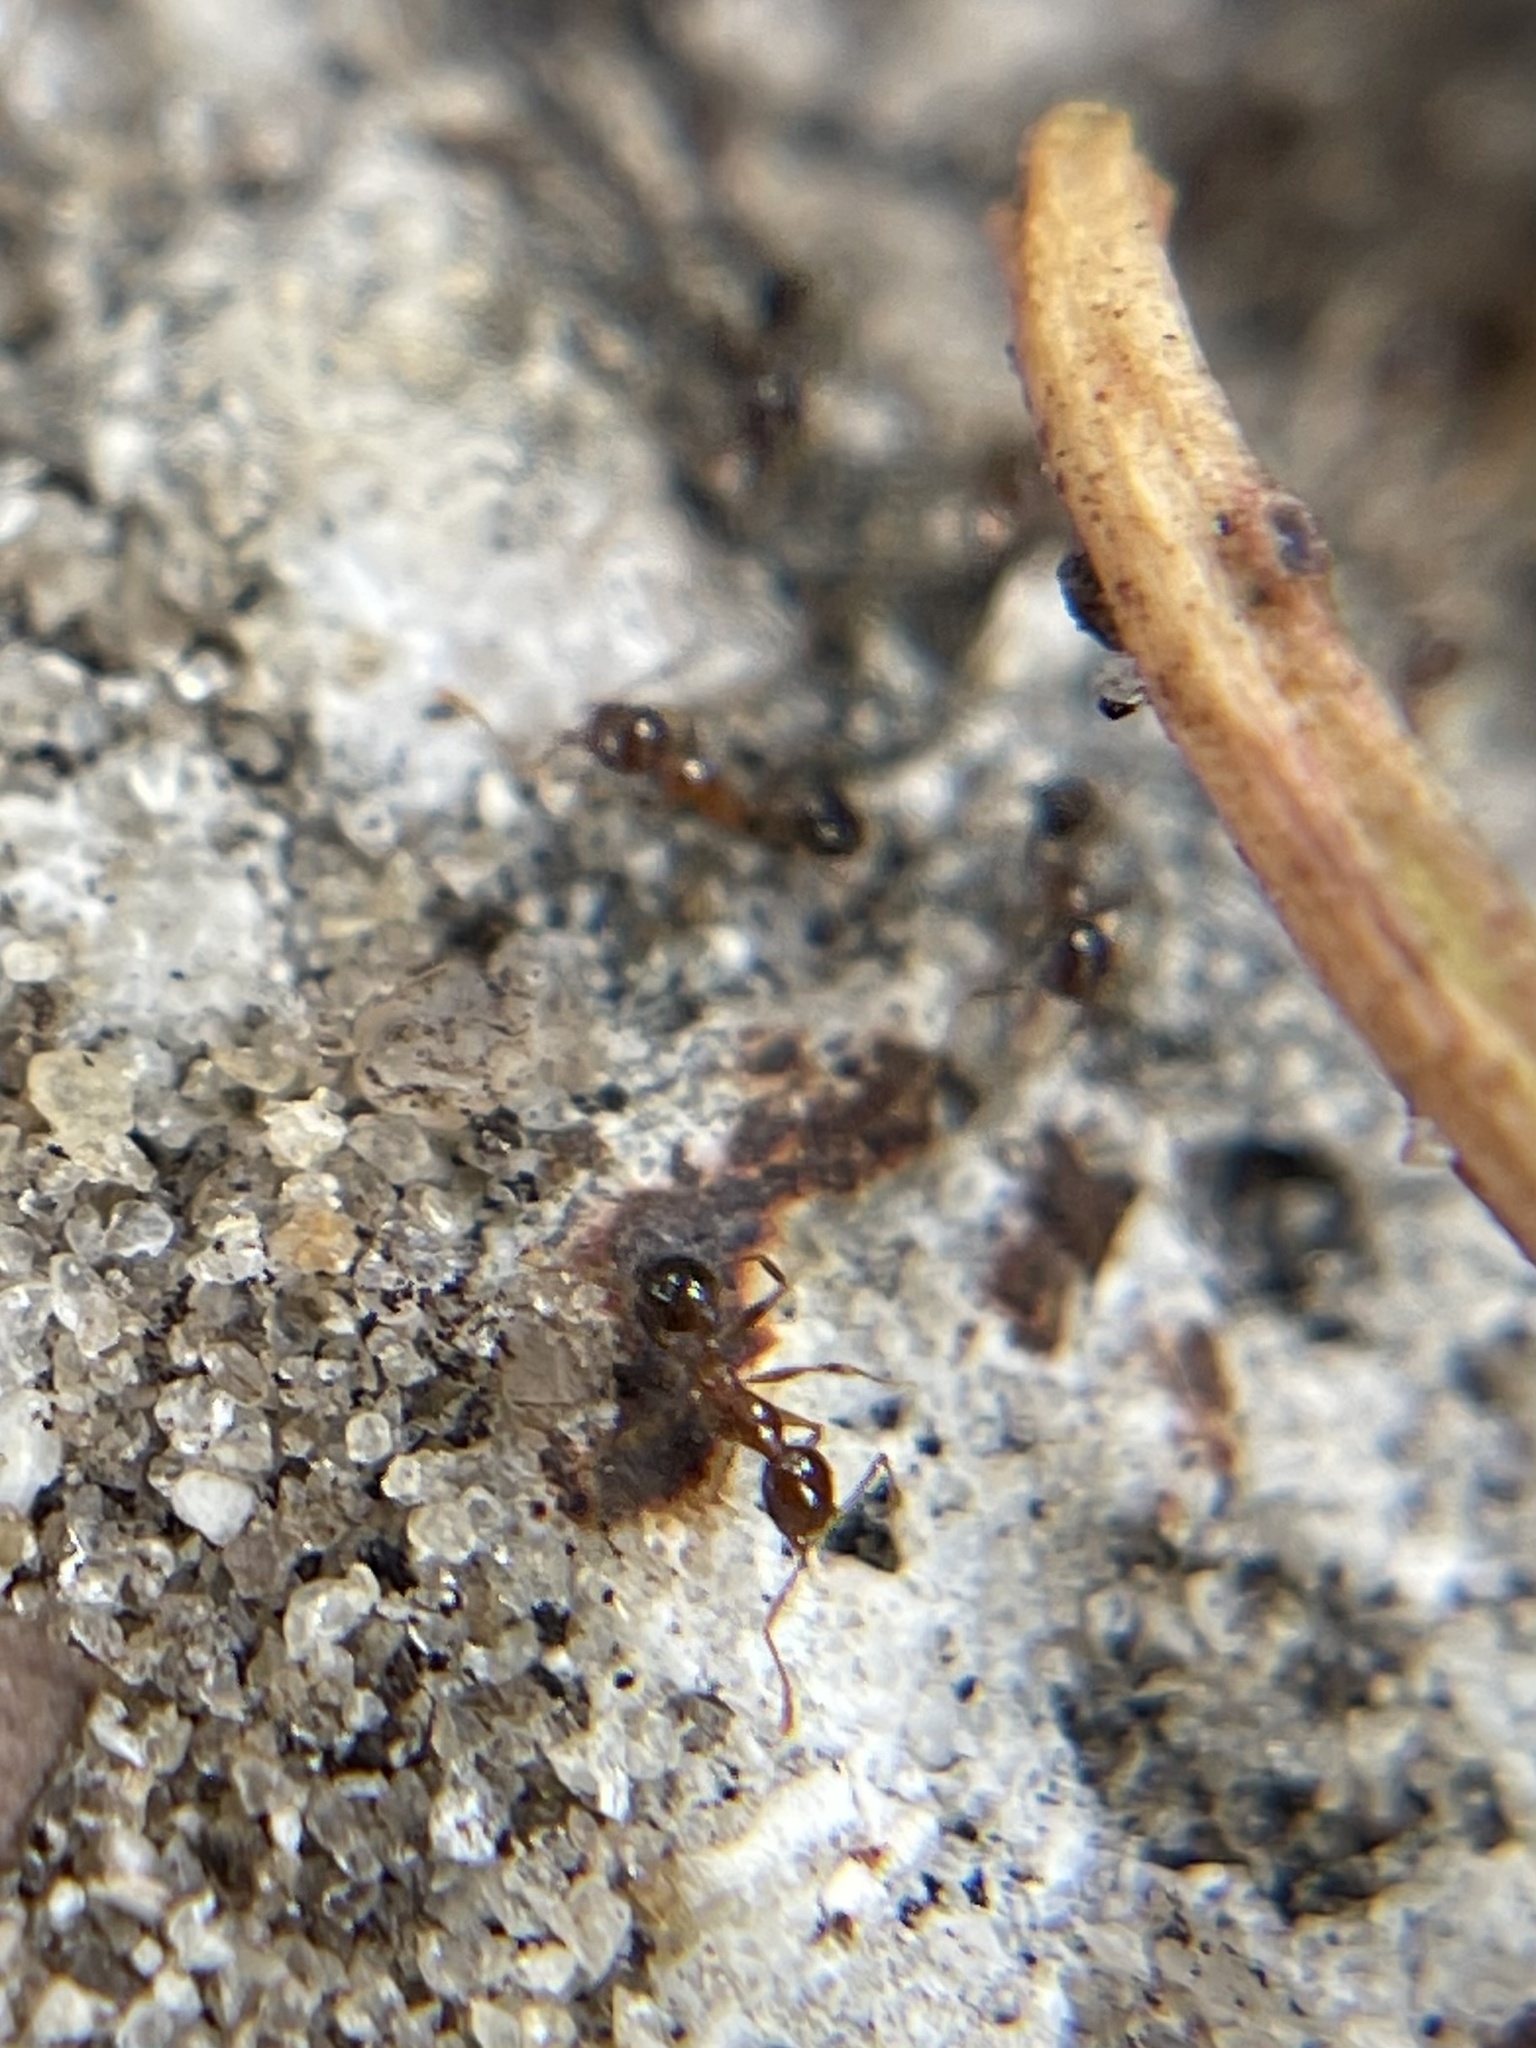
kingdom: Animalia
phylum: Arthropoda
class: Insecta
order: Hymenoptera
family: Formicidae
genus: Pheidole
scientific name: Pheidole megacephala
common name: Bigheaded ant
